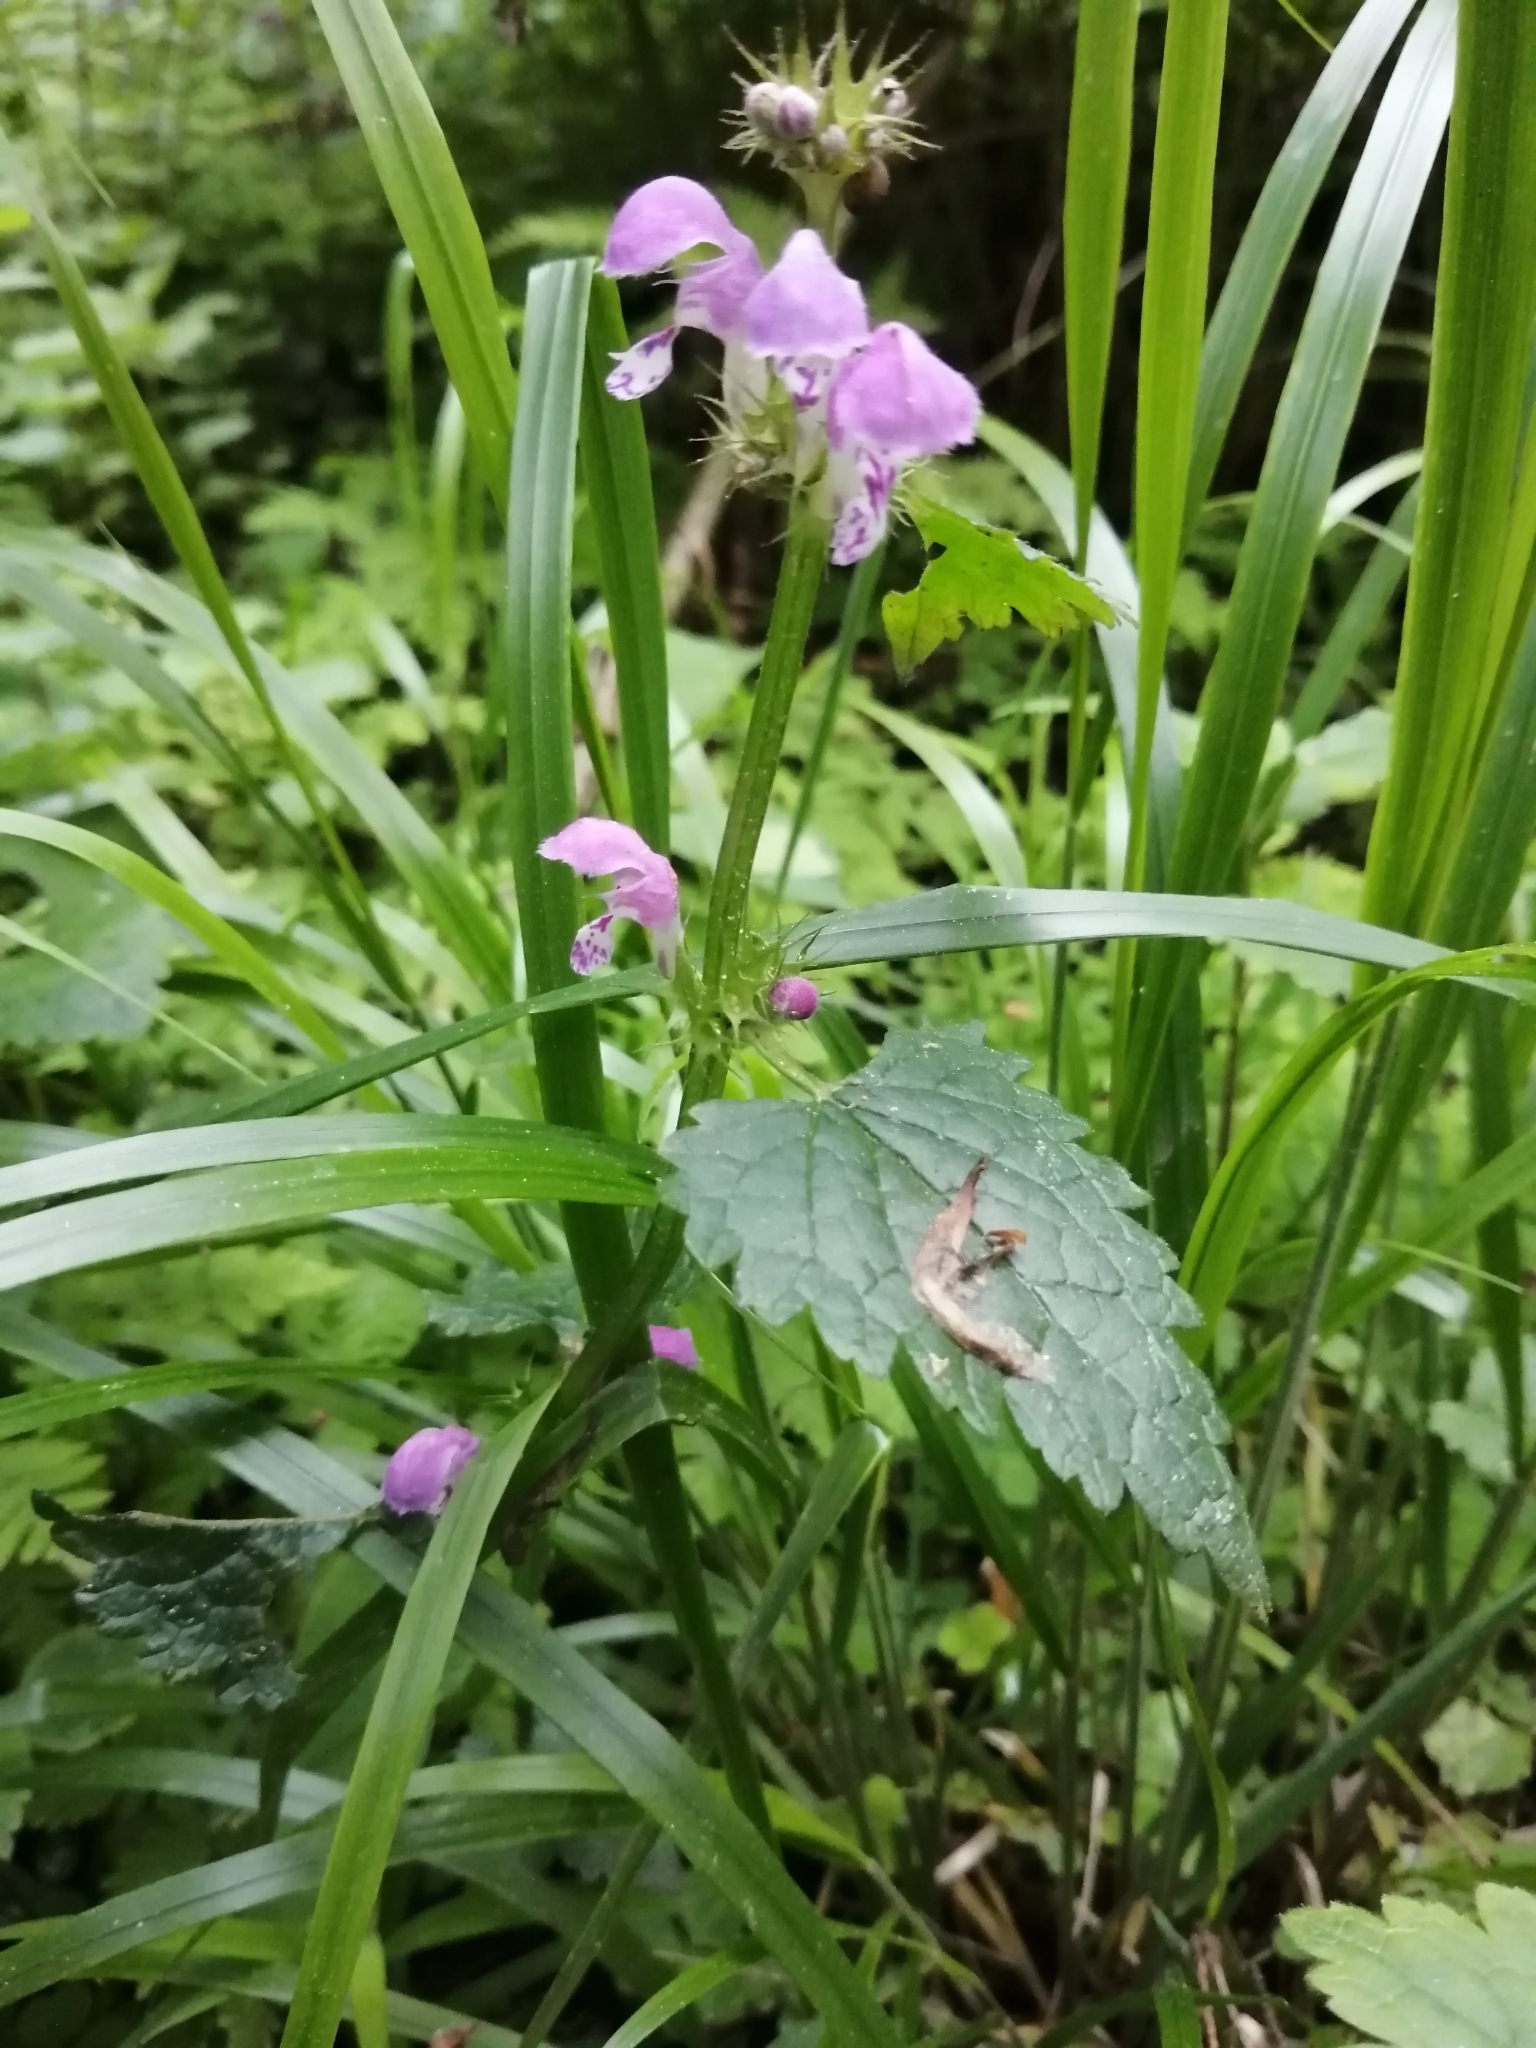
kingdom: Plantae
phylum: Tracheophyta
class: Magnoliopsida
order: Lamiales
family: Lamiaceae
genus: Lamium
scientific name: Lamium maculatum
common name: Spotted dead-nettle
